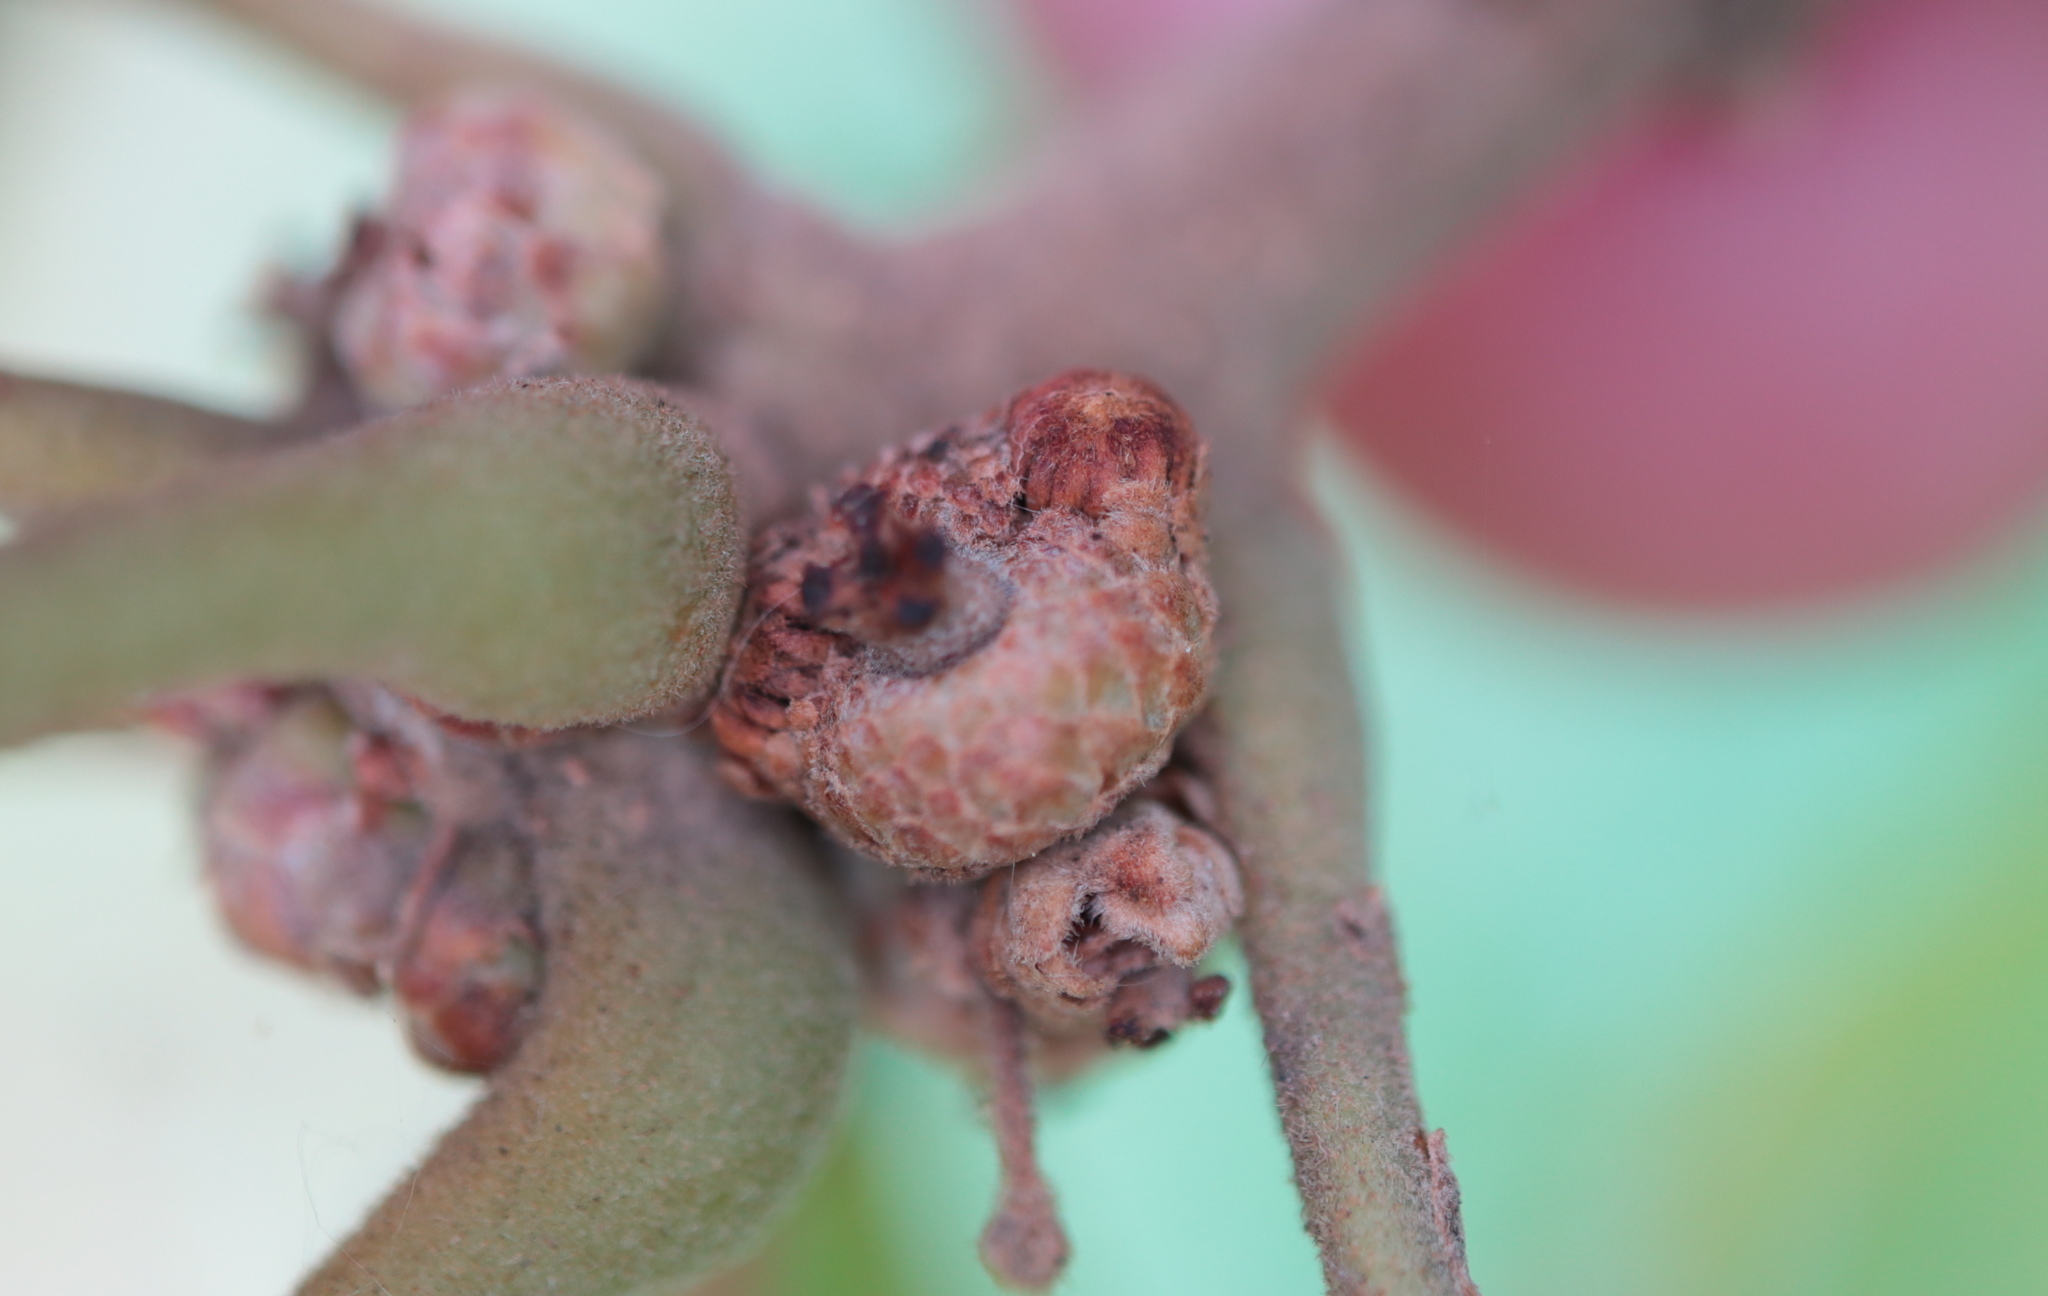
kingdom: Animalia
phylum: Arthropoda
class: Insecta
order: Hymenoptera
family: Cynipidae
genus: Callirhytis
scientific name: Callirhytis
